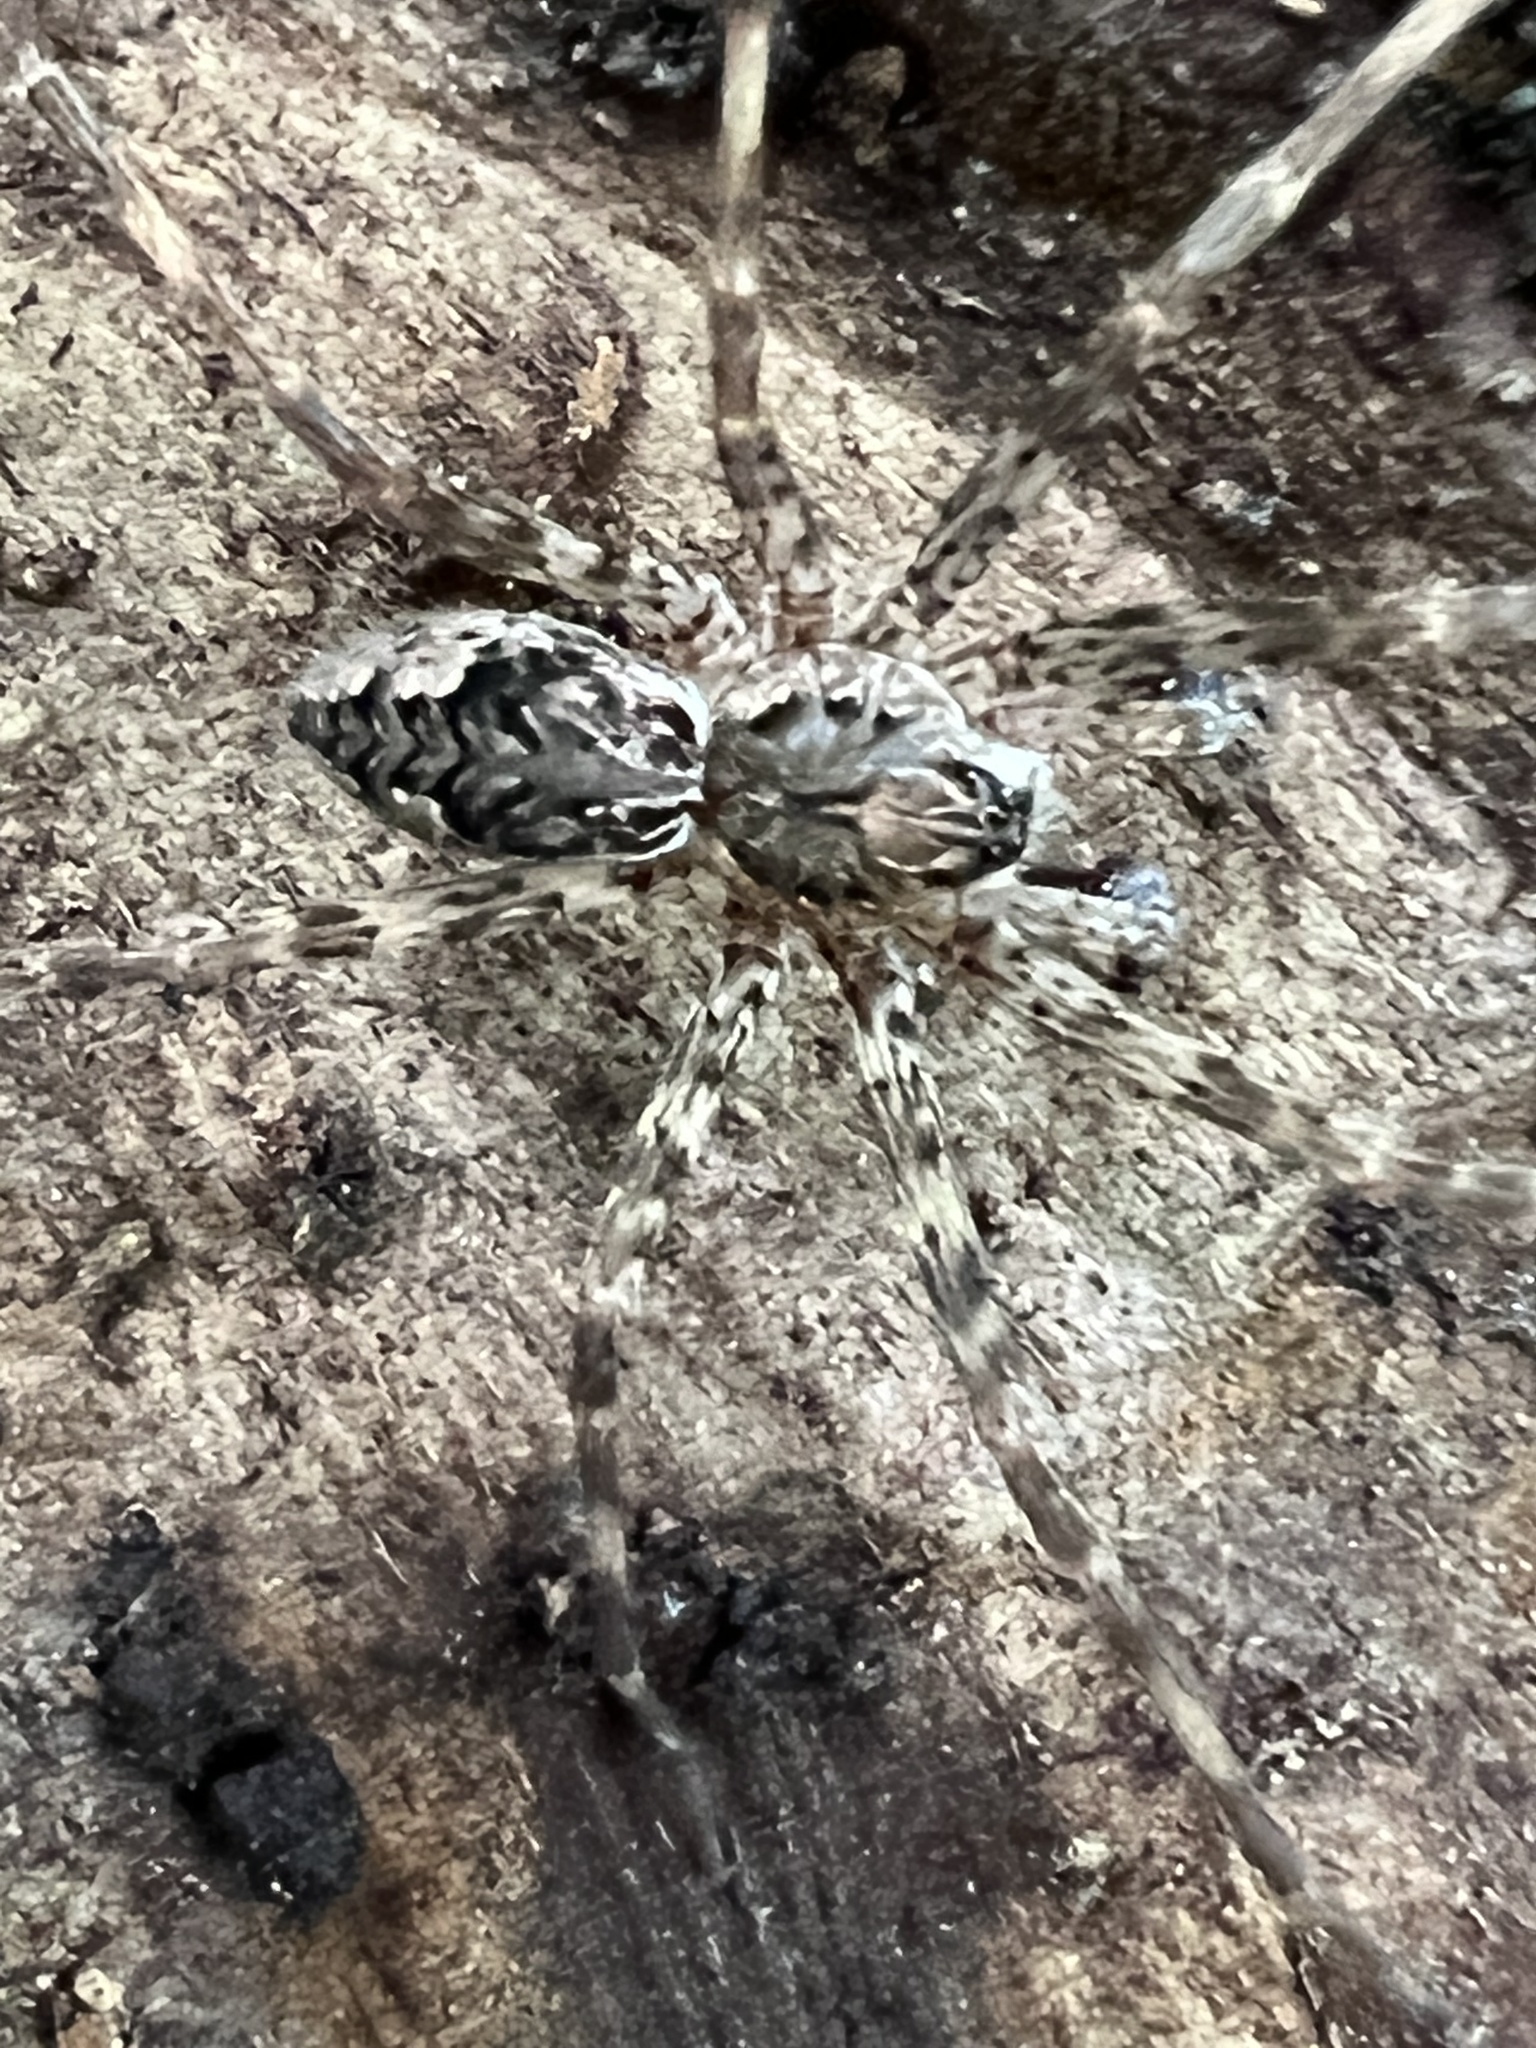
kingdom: Animalia
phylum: Arthropoda
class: Arachnida
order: Araneae
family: Pisauridae
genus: Dolomedes
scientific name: Dolomedes tenebrosus
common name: Dark fishing spider
